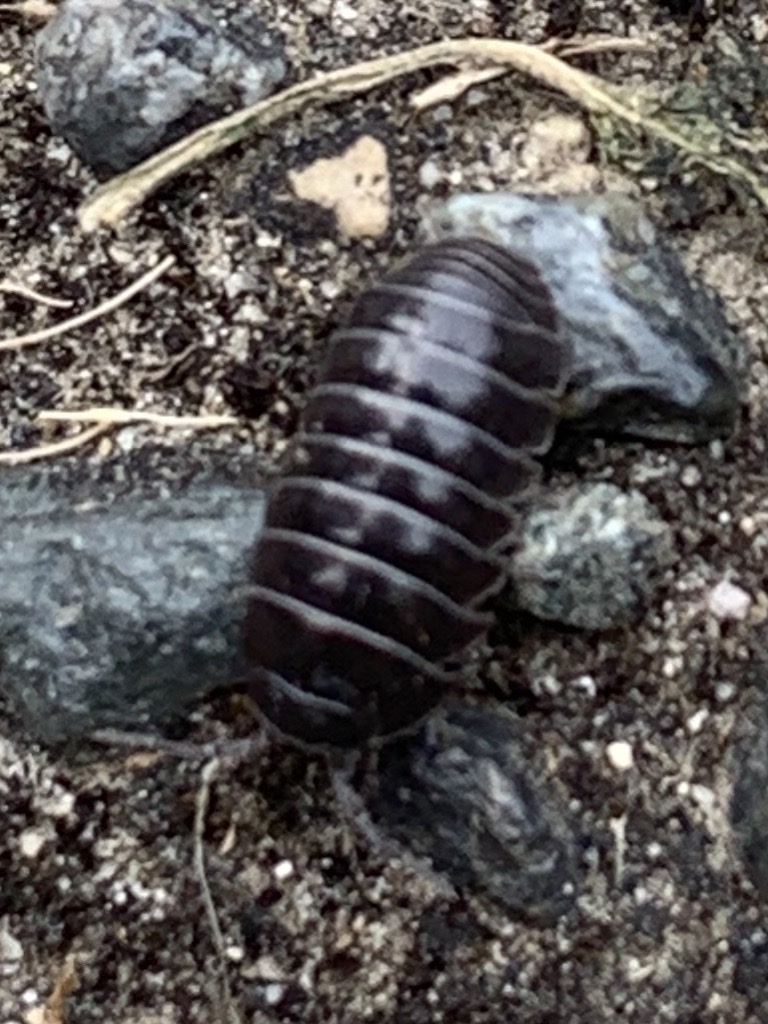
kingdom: Animalia
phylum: Arthropoda
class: Malacostraca
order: Isopoda
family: Armadillidiidae
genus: Armadillidium
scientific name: Armadillidium vulgare
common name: Common pill woodlouse
